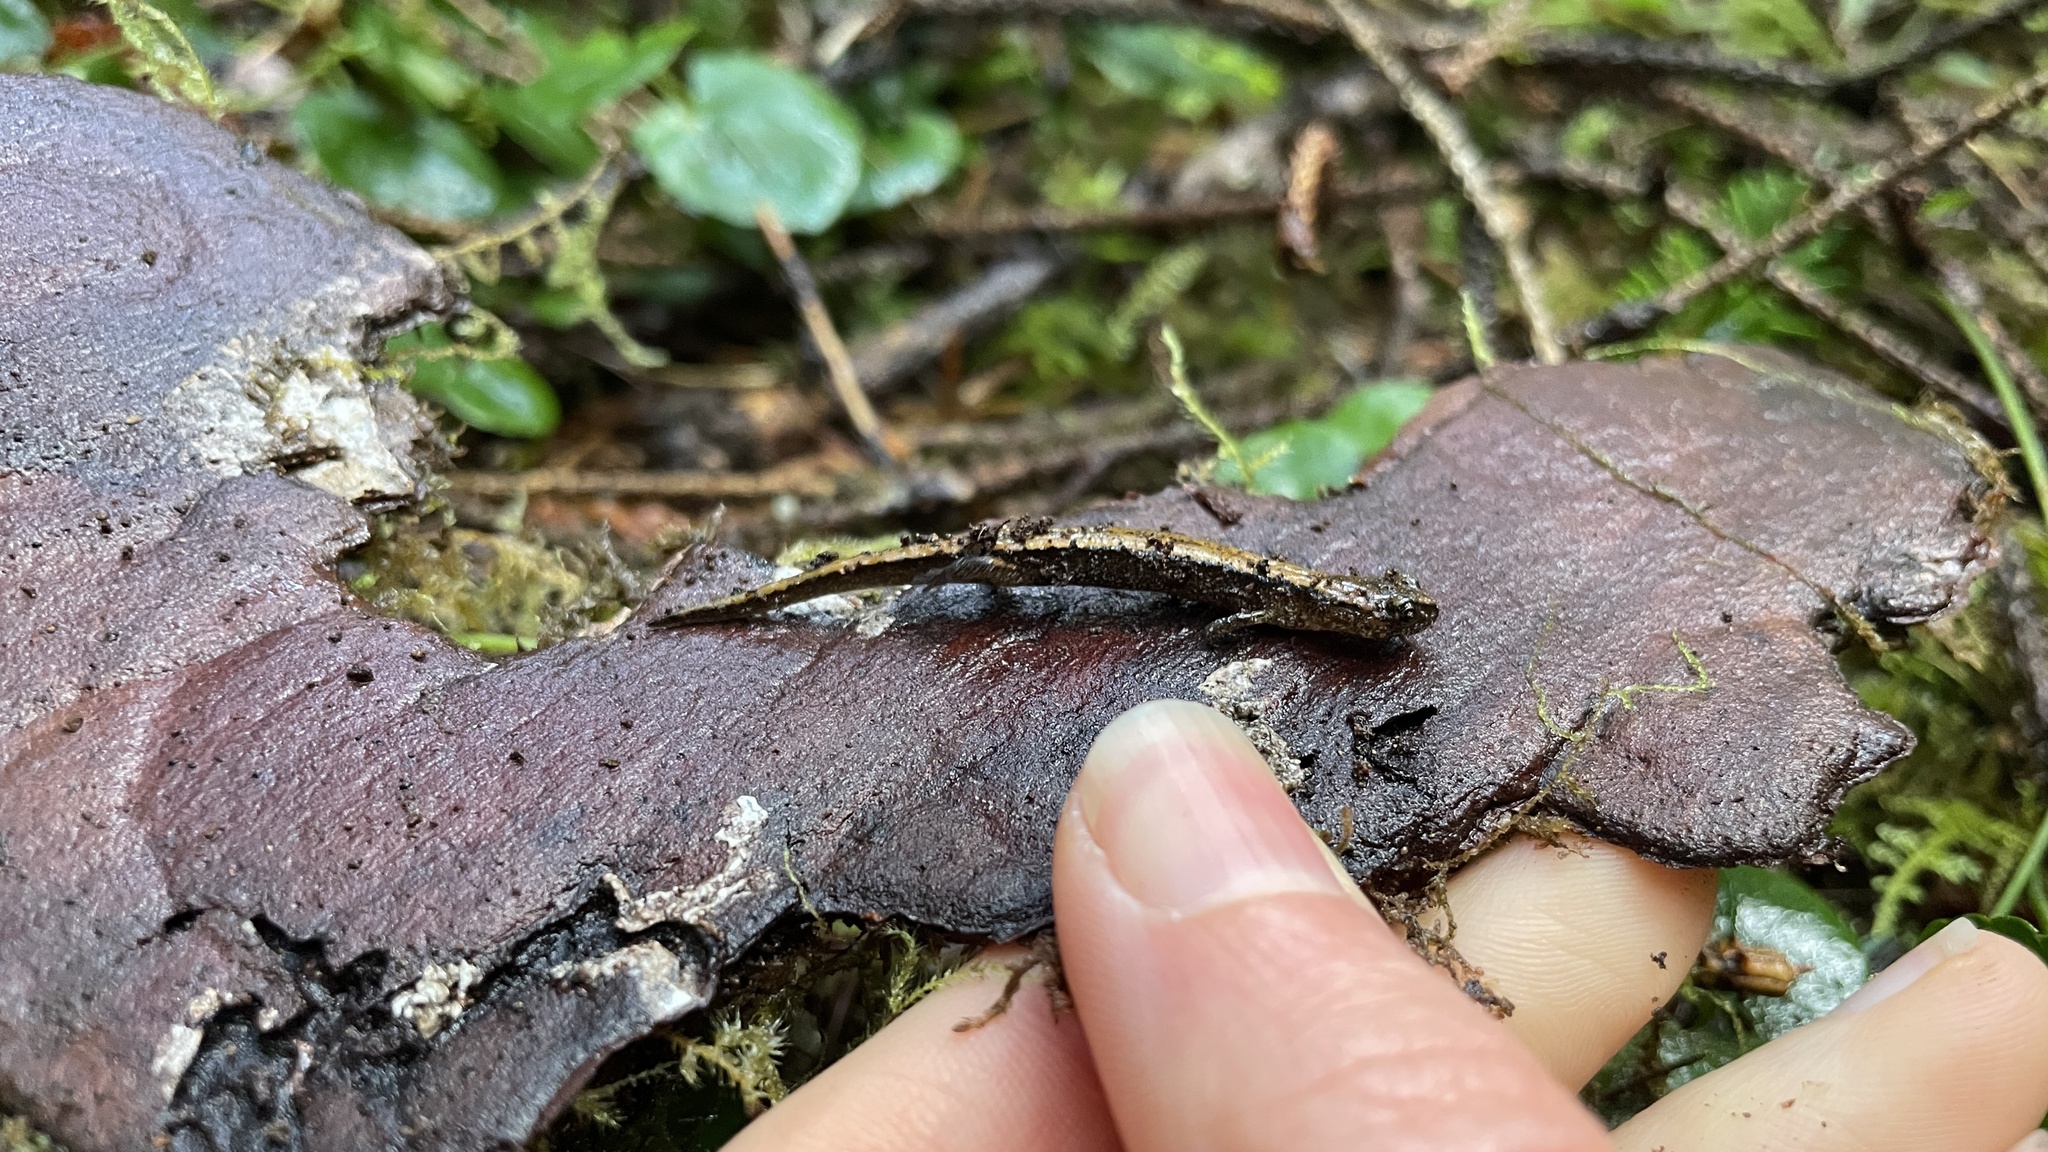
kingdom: Animalia
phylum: Chordata
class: Amphibia
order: Caudata
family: Plethodontidae
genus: Plethodon
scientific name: Plethodon vehiculum
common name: Western red-backed salamander
